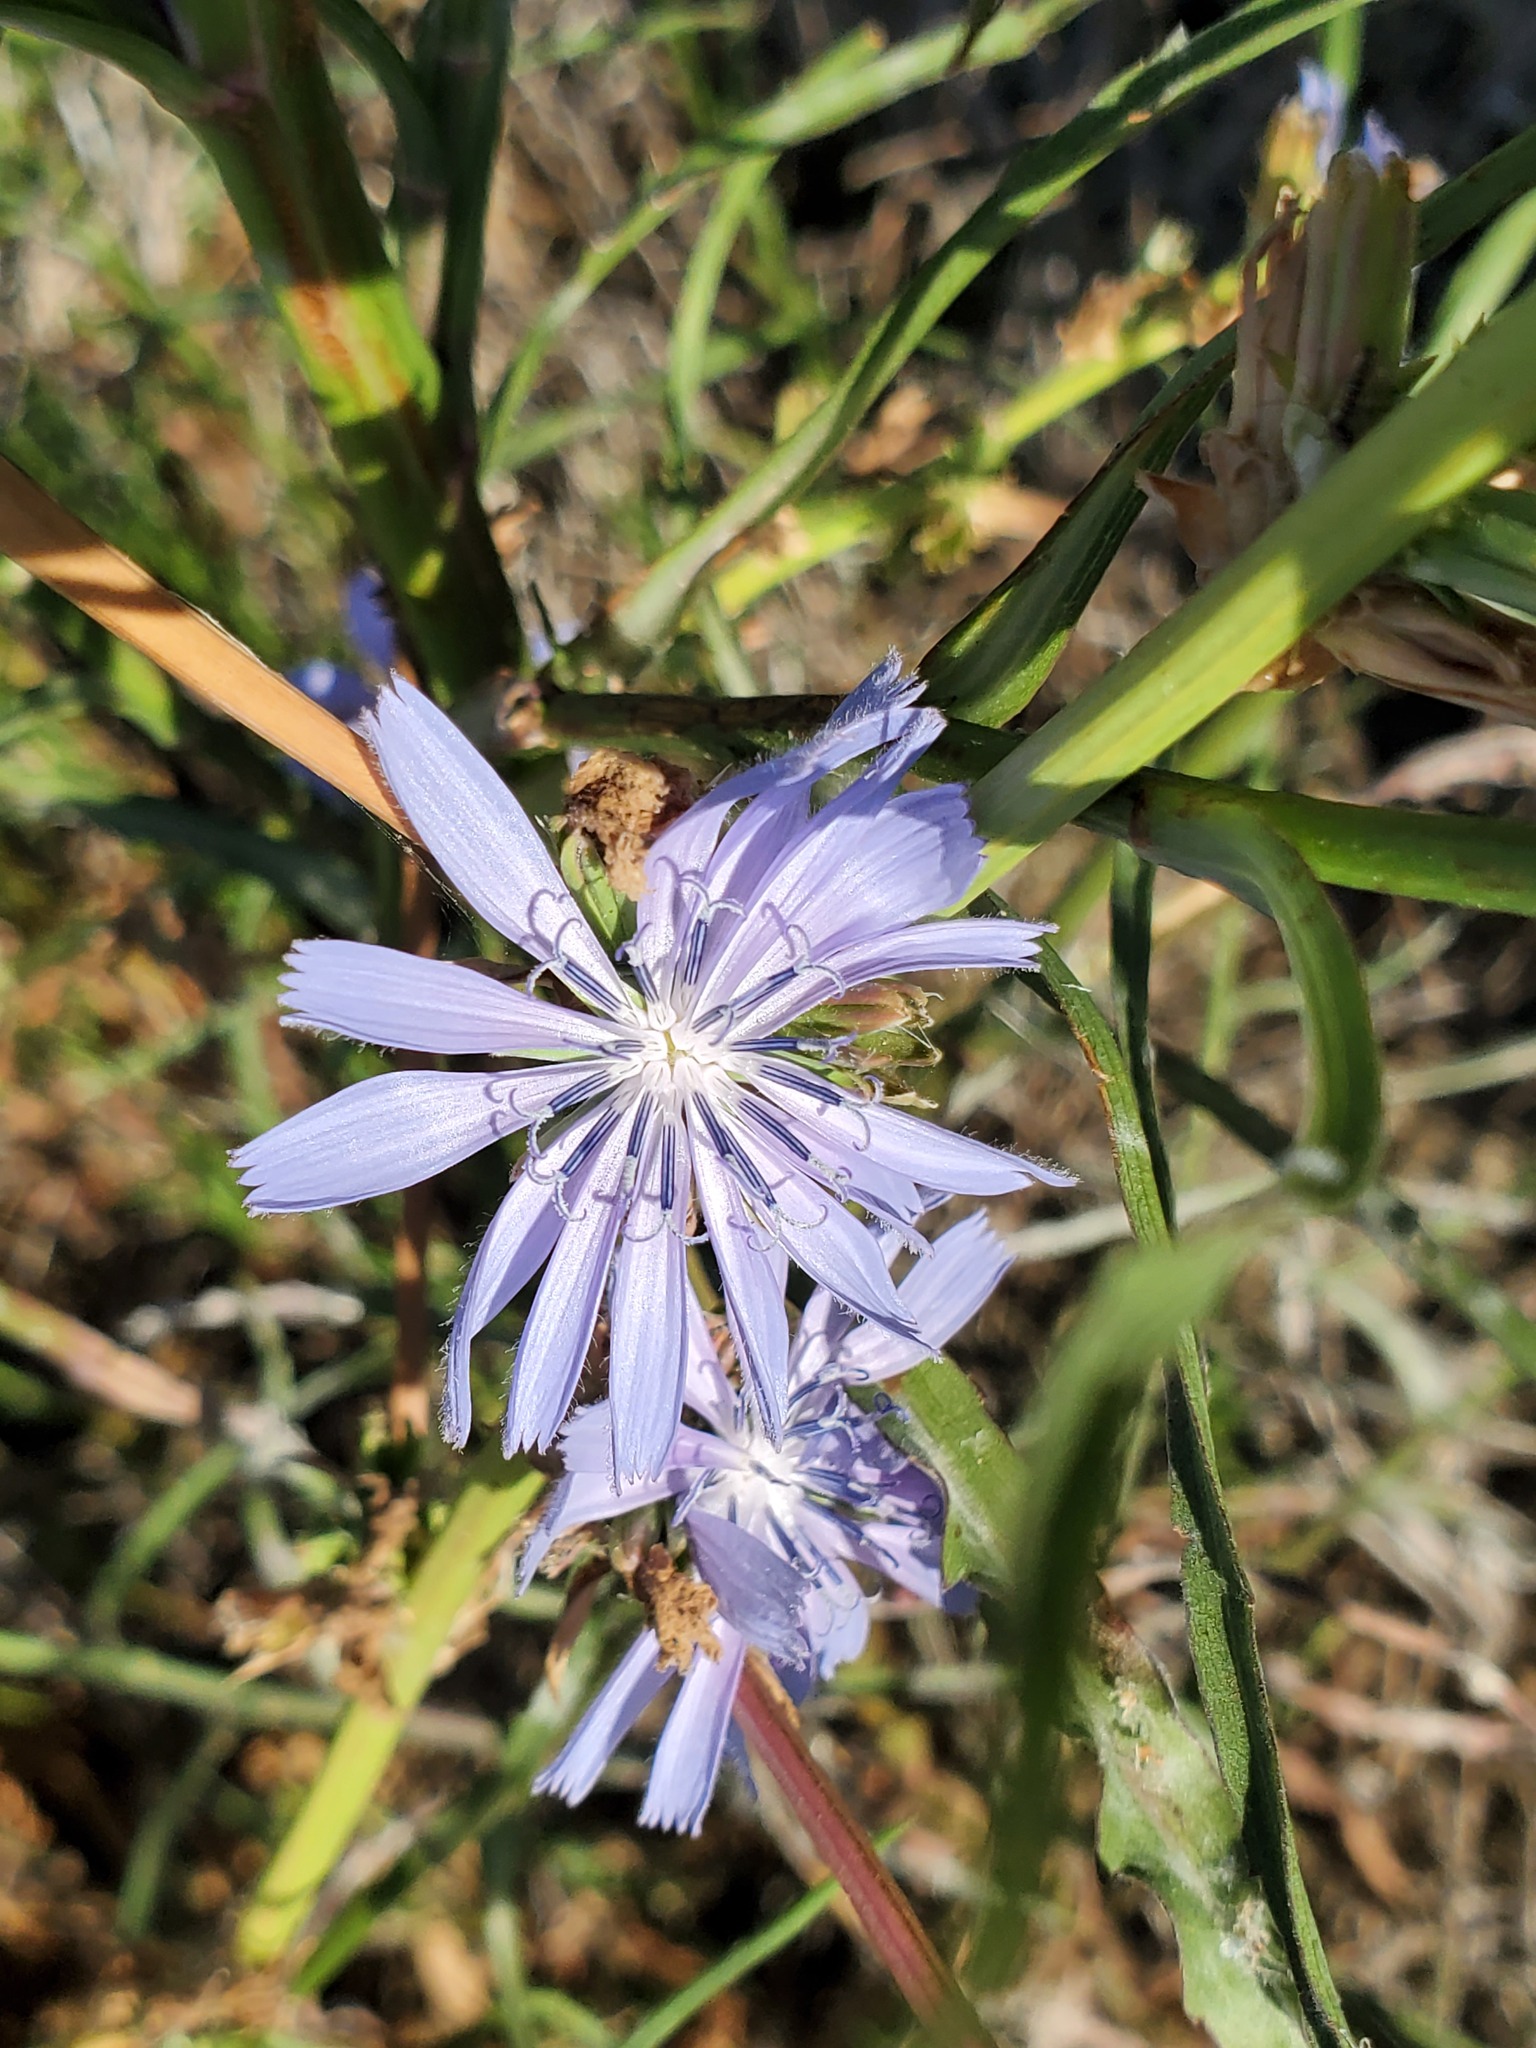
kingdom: Plantae
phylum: Tracheophyta
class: Magnoliopsida
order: Asterales
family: Asteraceae
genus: Cichorium
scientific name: Cichorium intybus
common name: Chicory
